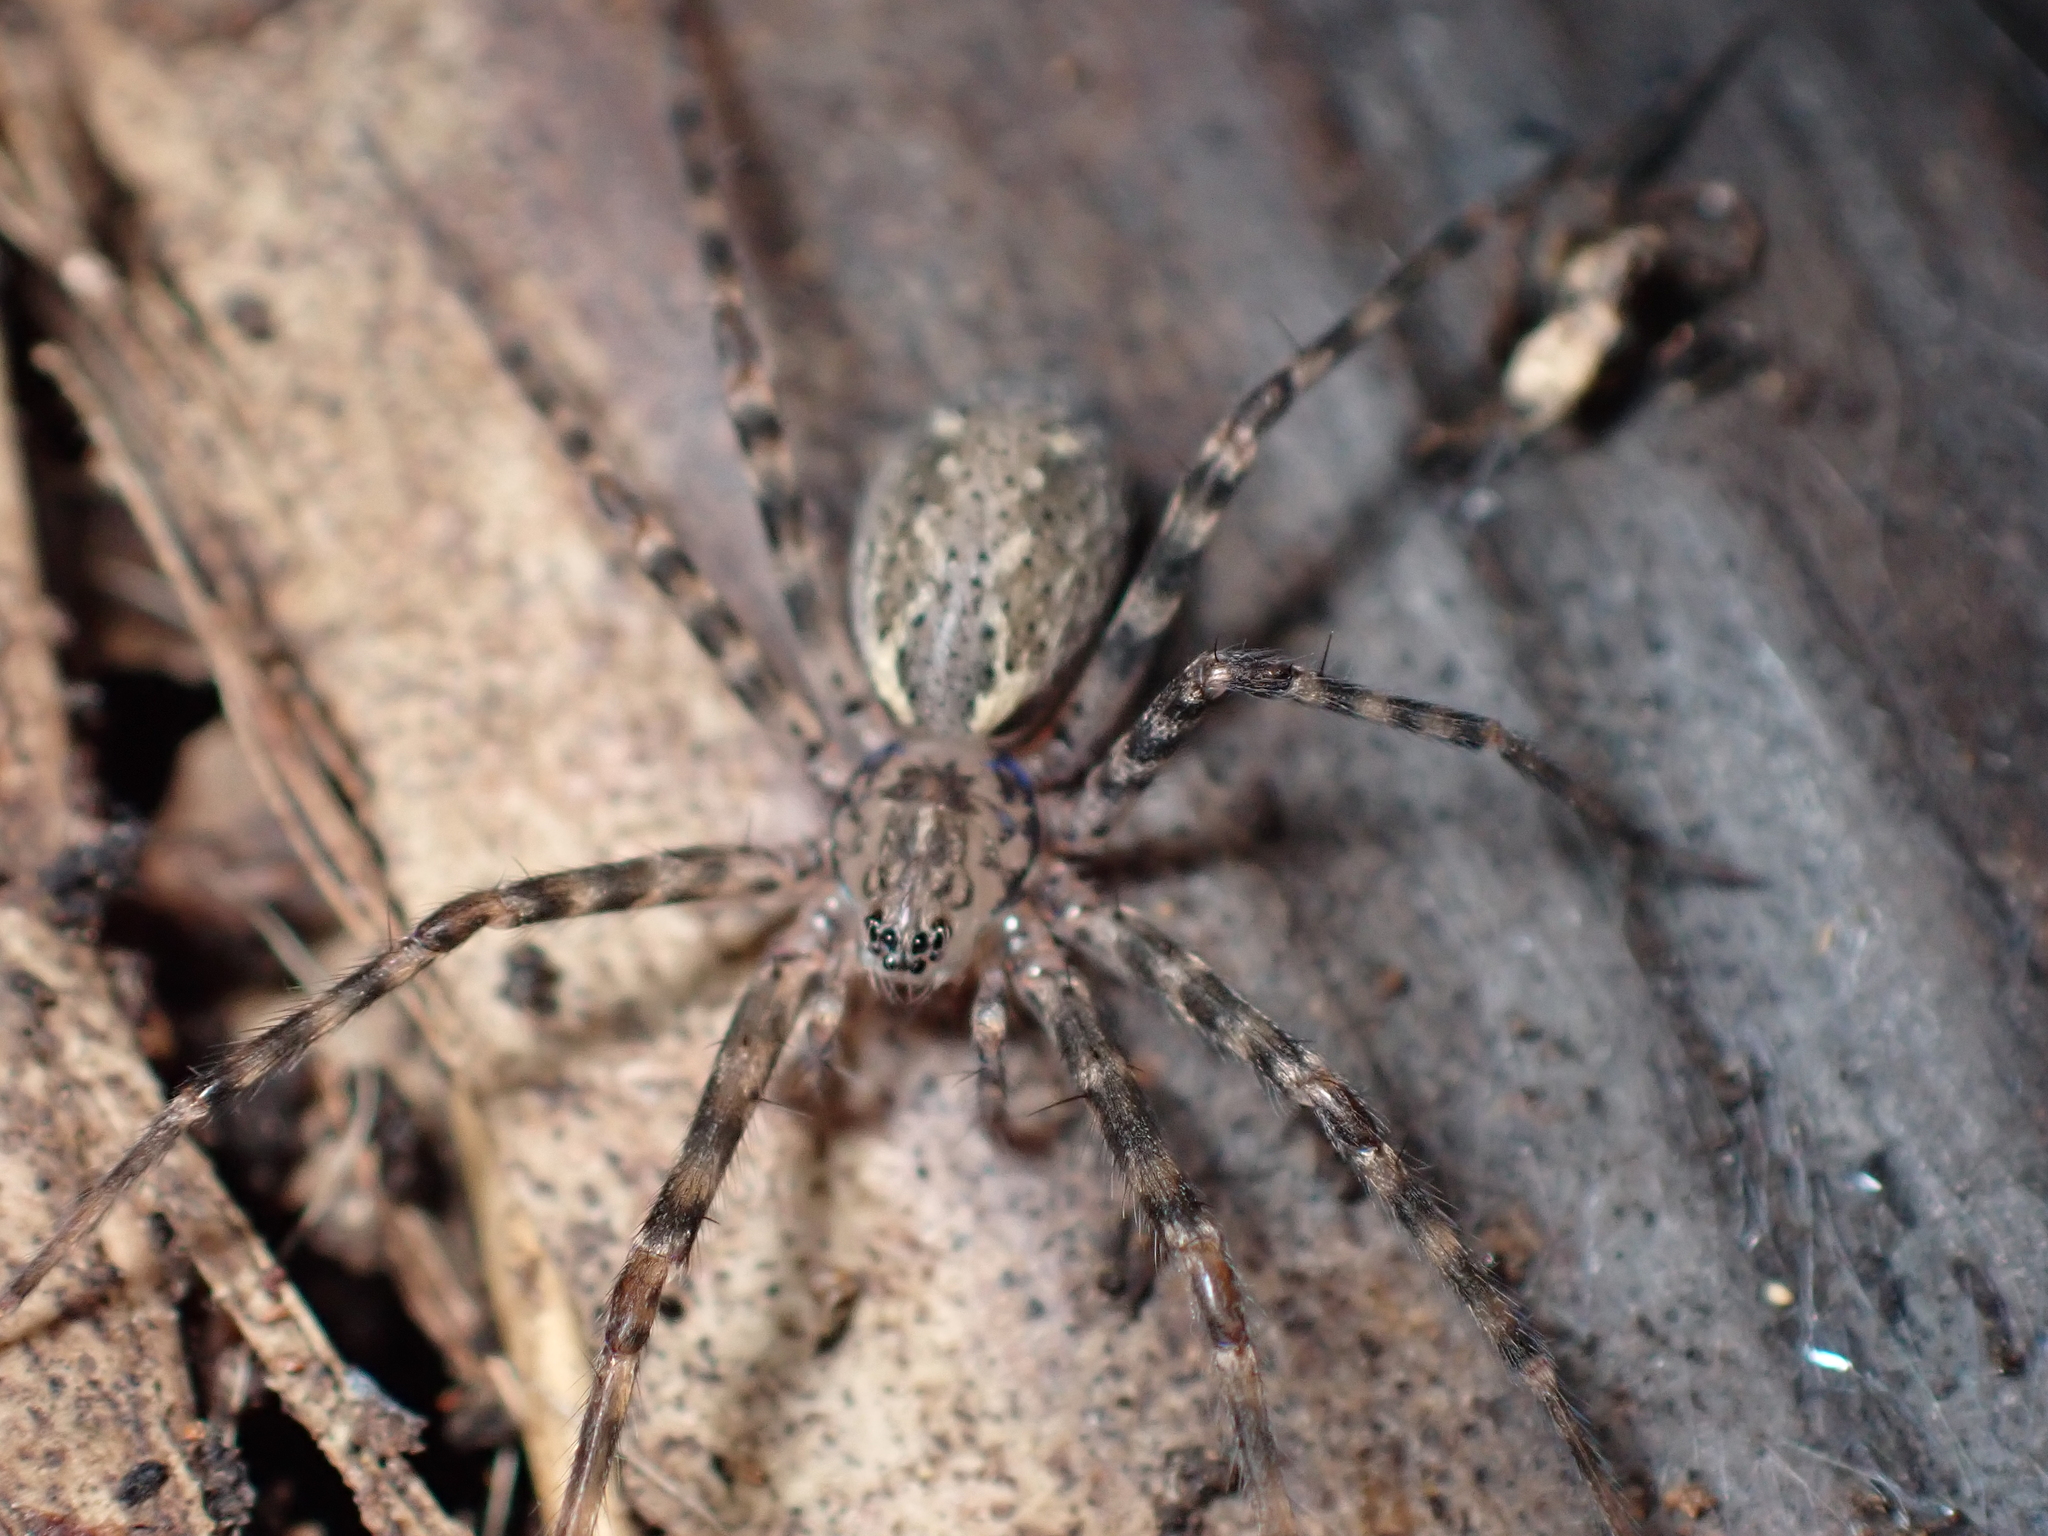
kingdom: Animalia
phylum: Arthropoda
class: Arachnida
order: Araneae
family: Stiphidiidae
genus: Stiphidion
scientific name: Stiphidion facetum
